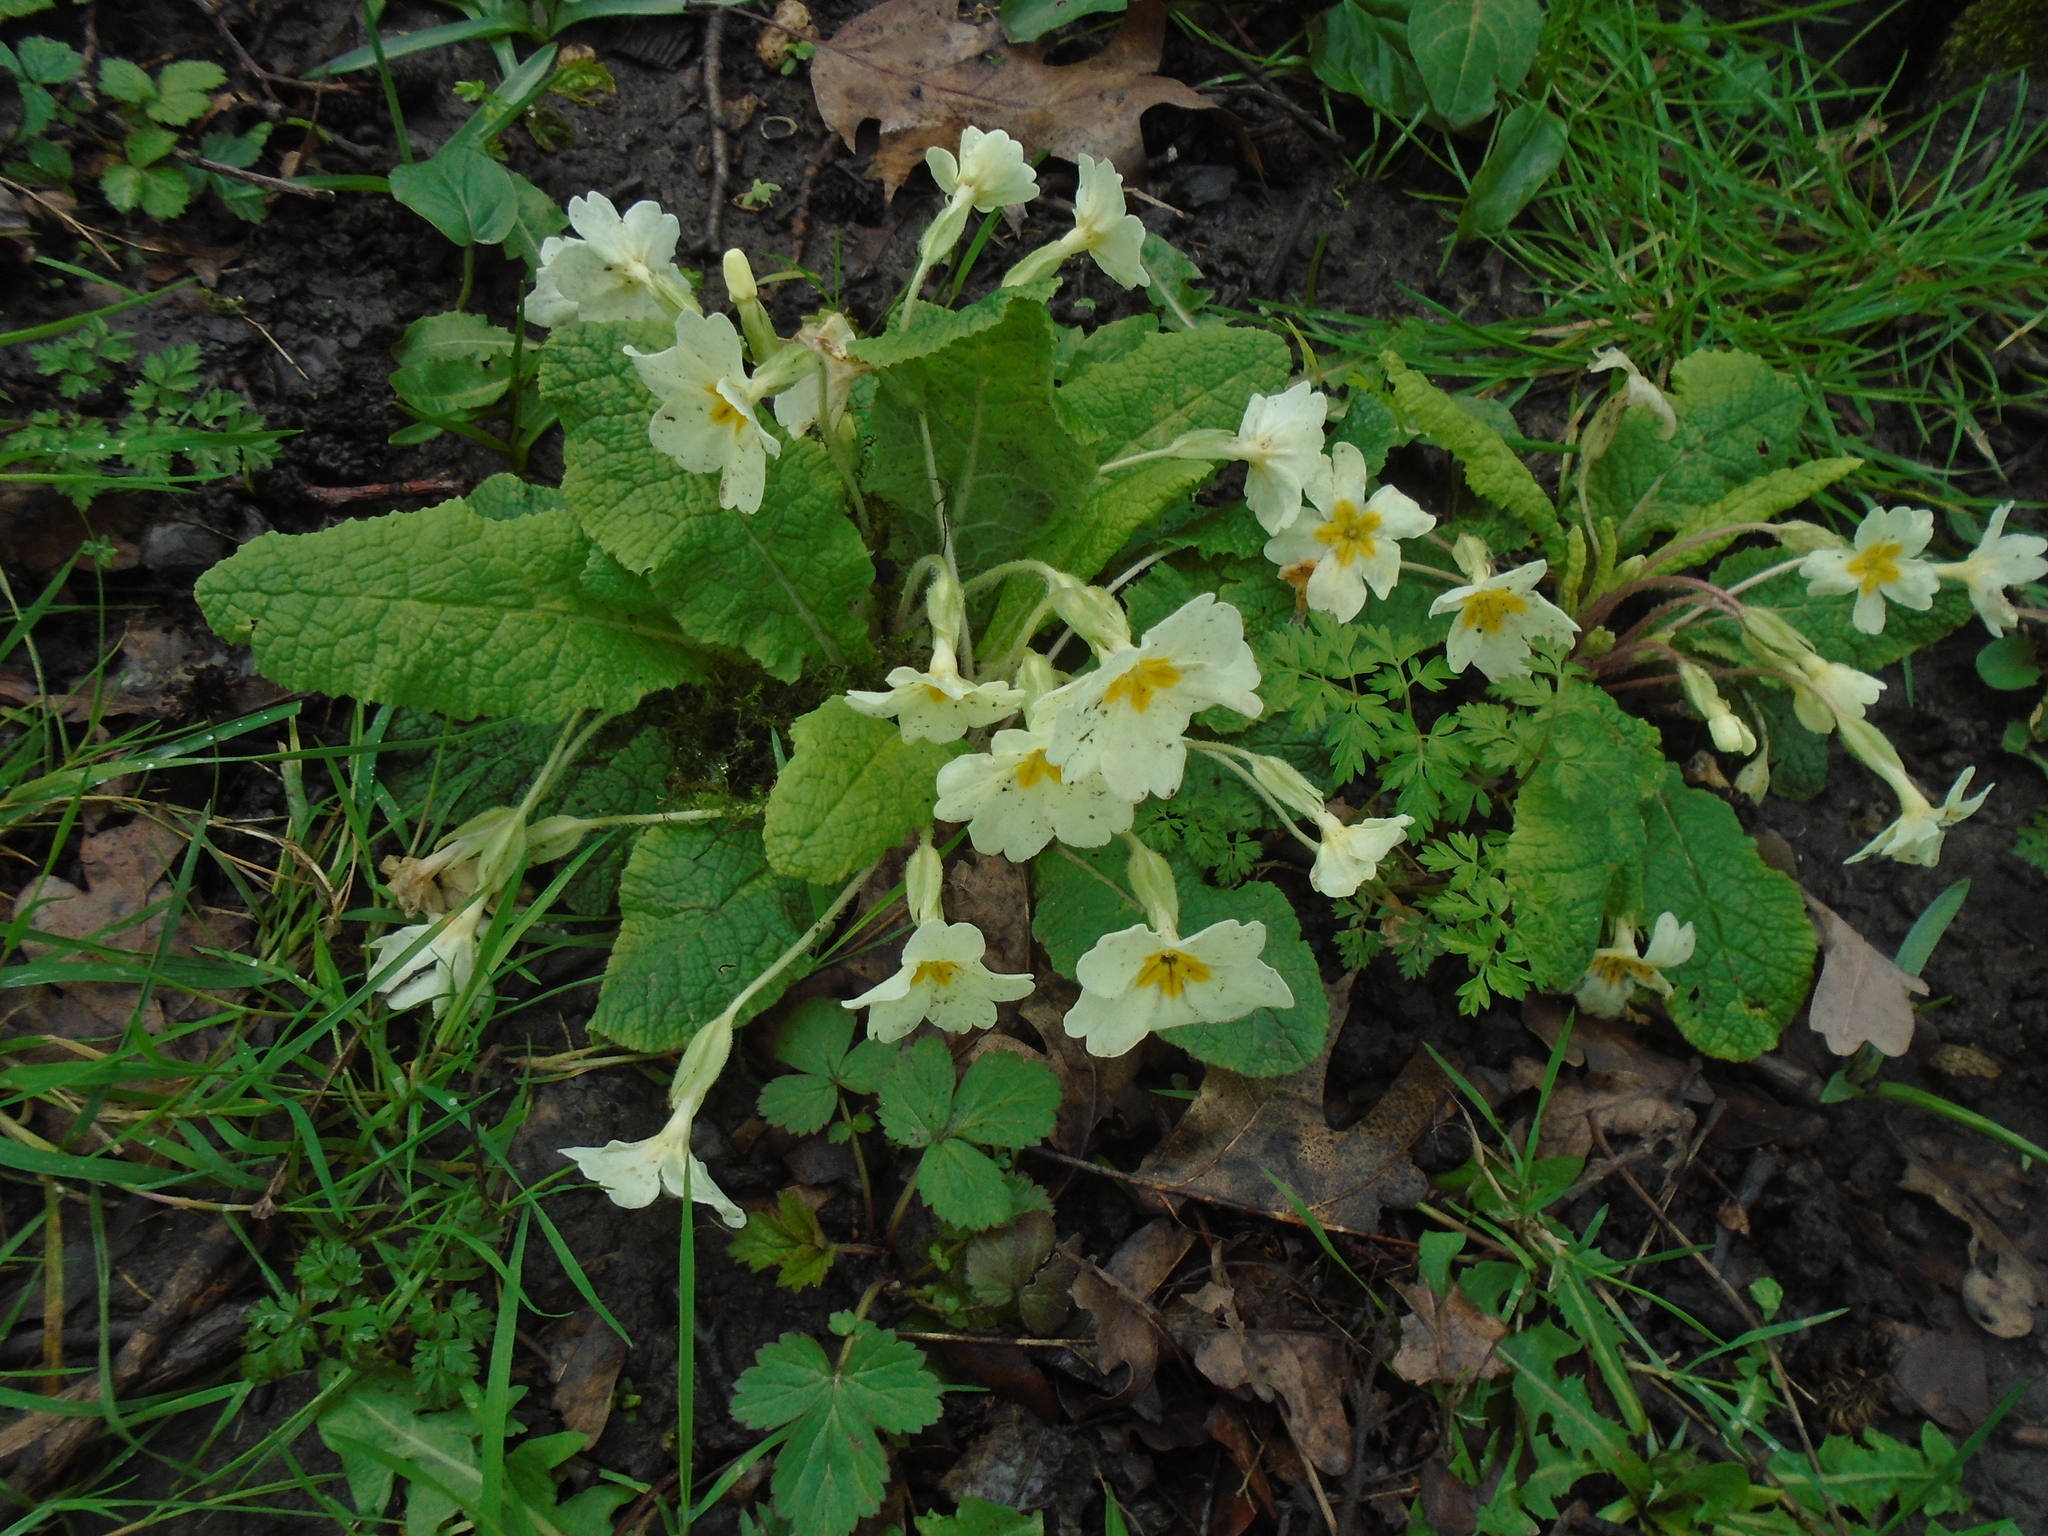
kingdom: Plantae
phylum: Tracheophyta
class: Magnoliopsida
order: Ericales
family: Primulaceae
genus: Primula
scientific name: Primula vulgaris
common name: Primrose
